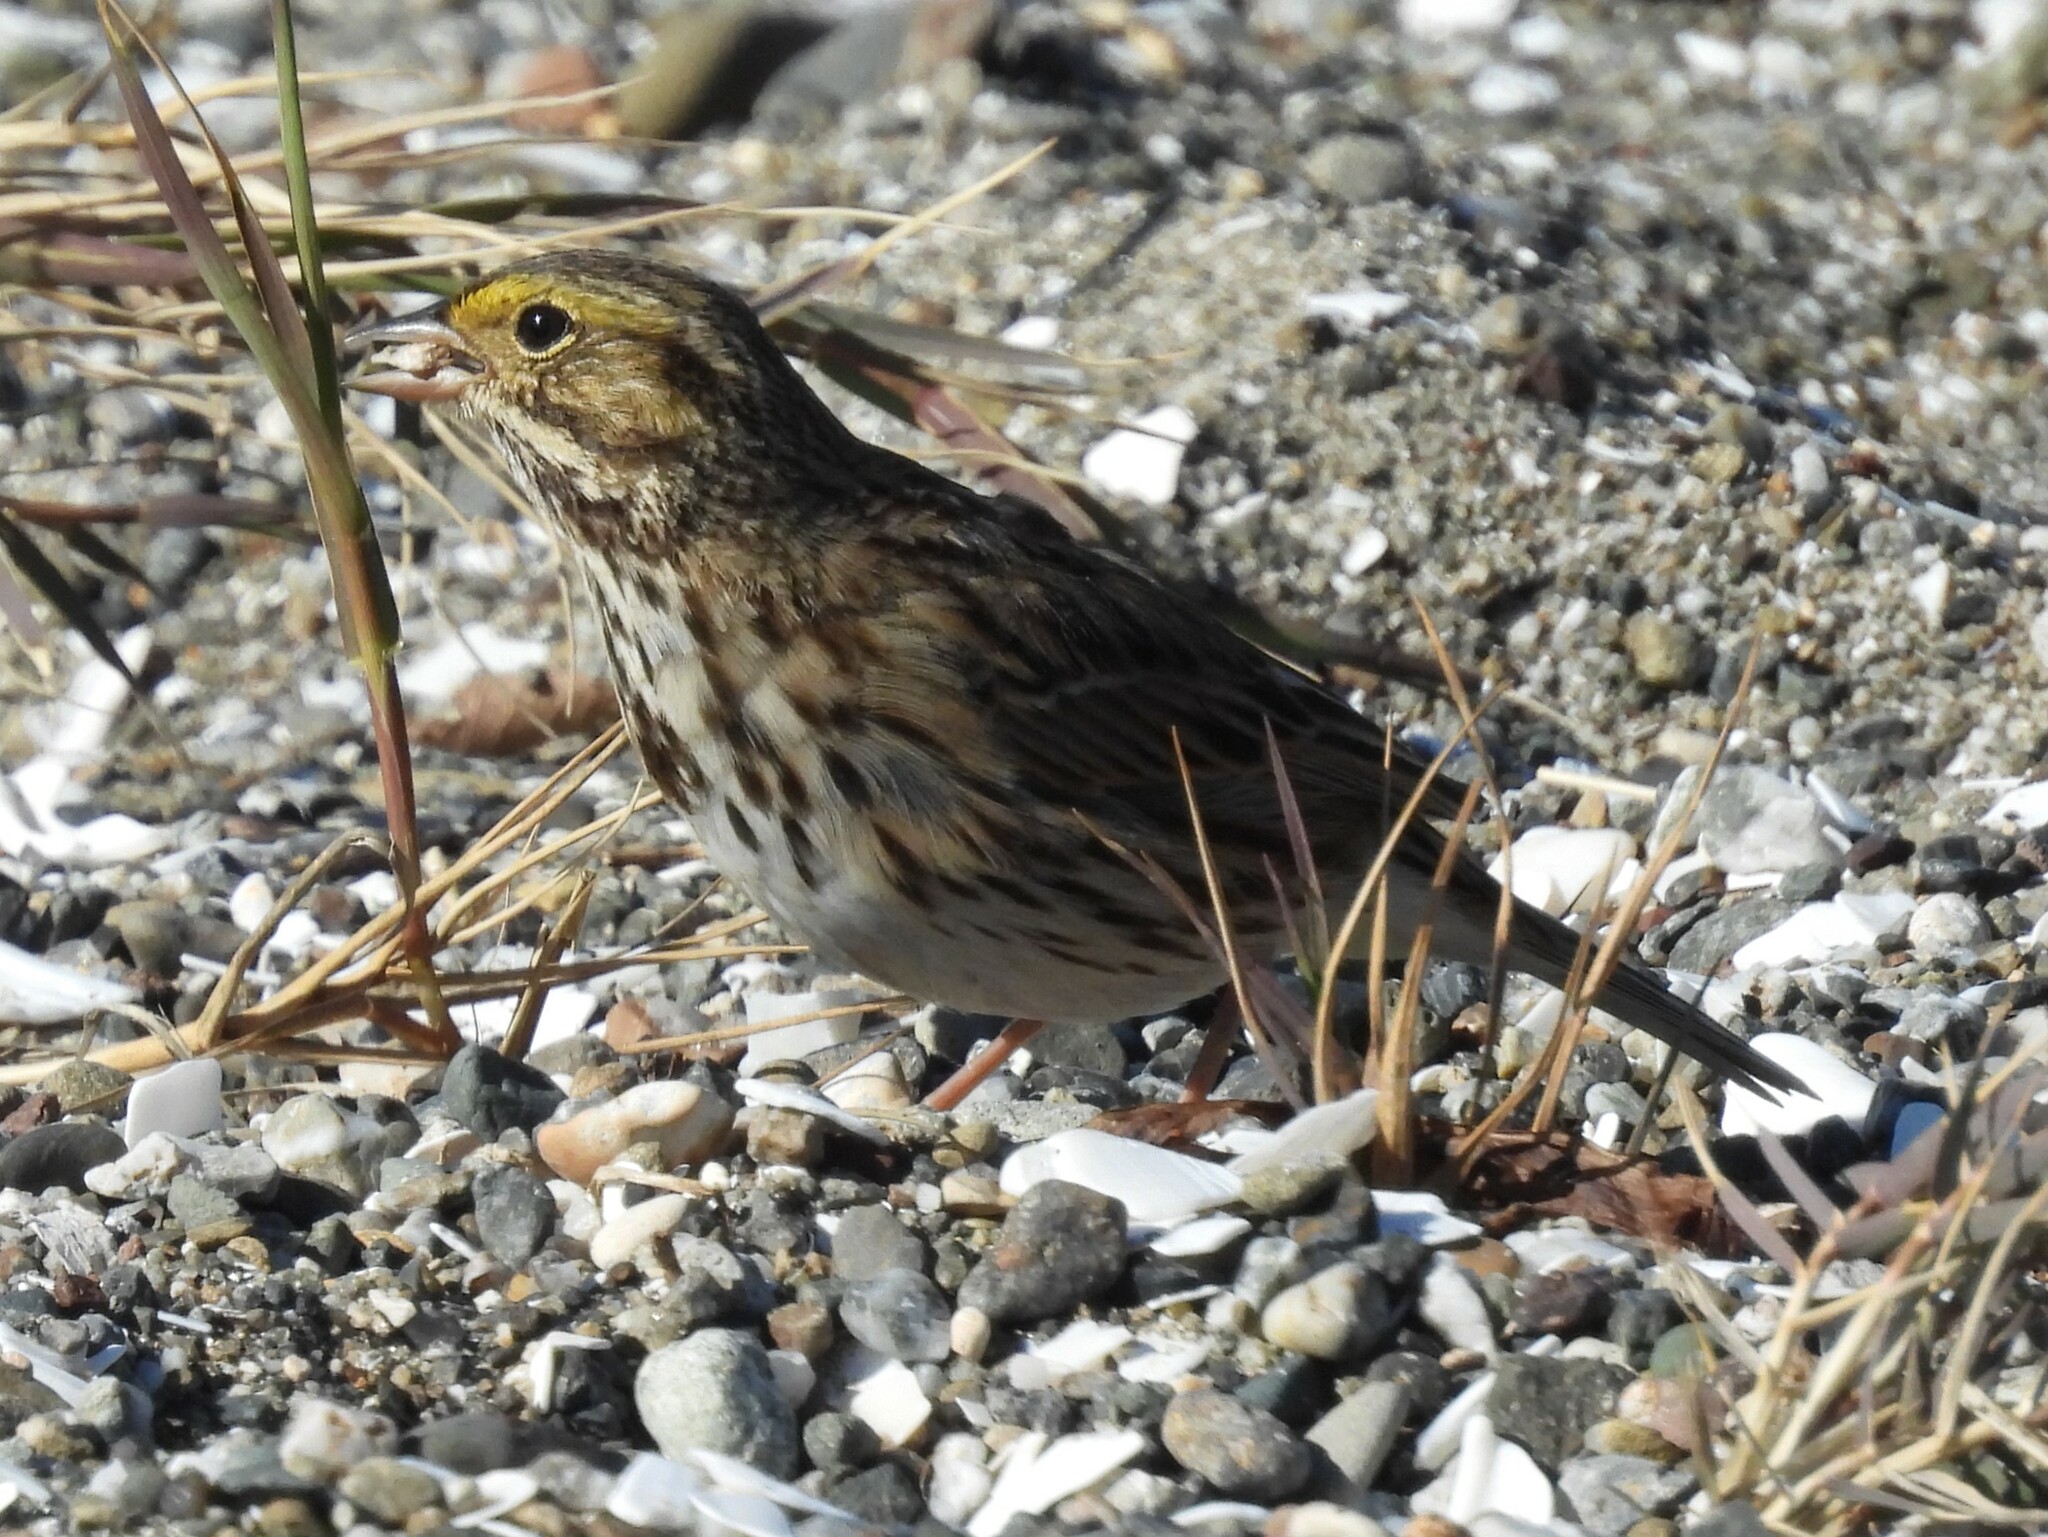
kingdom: Animalia
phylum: Chordata
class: Aves
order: Passeriformes
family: Passerellidae
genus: Passerculus
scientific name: Passerculus sandwichensis
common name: Savannah sparrow
